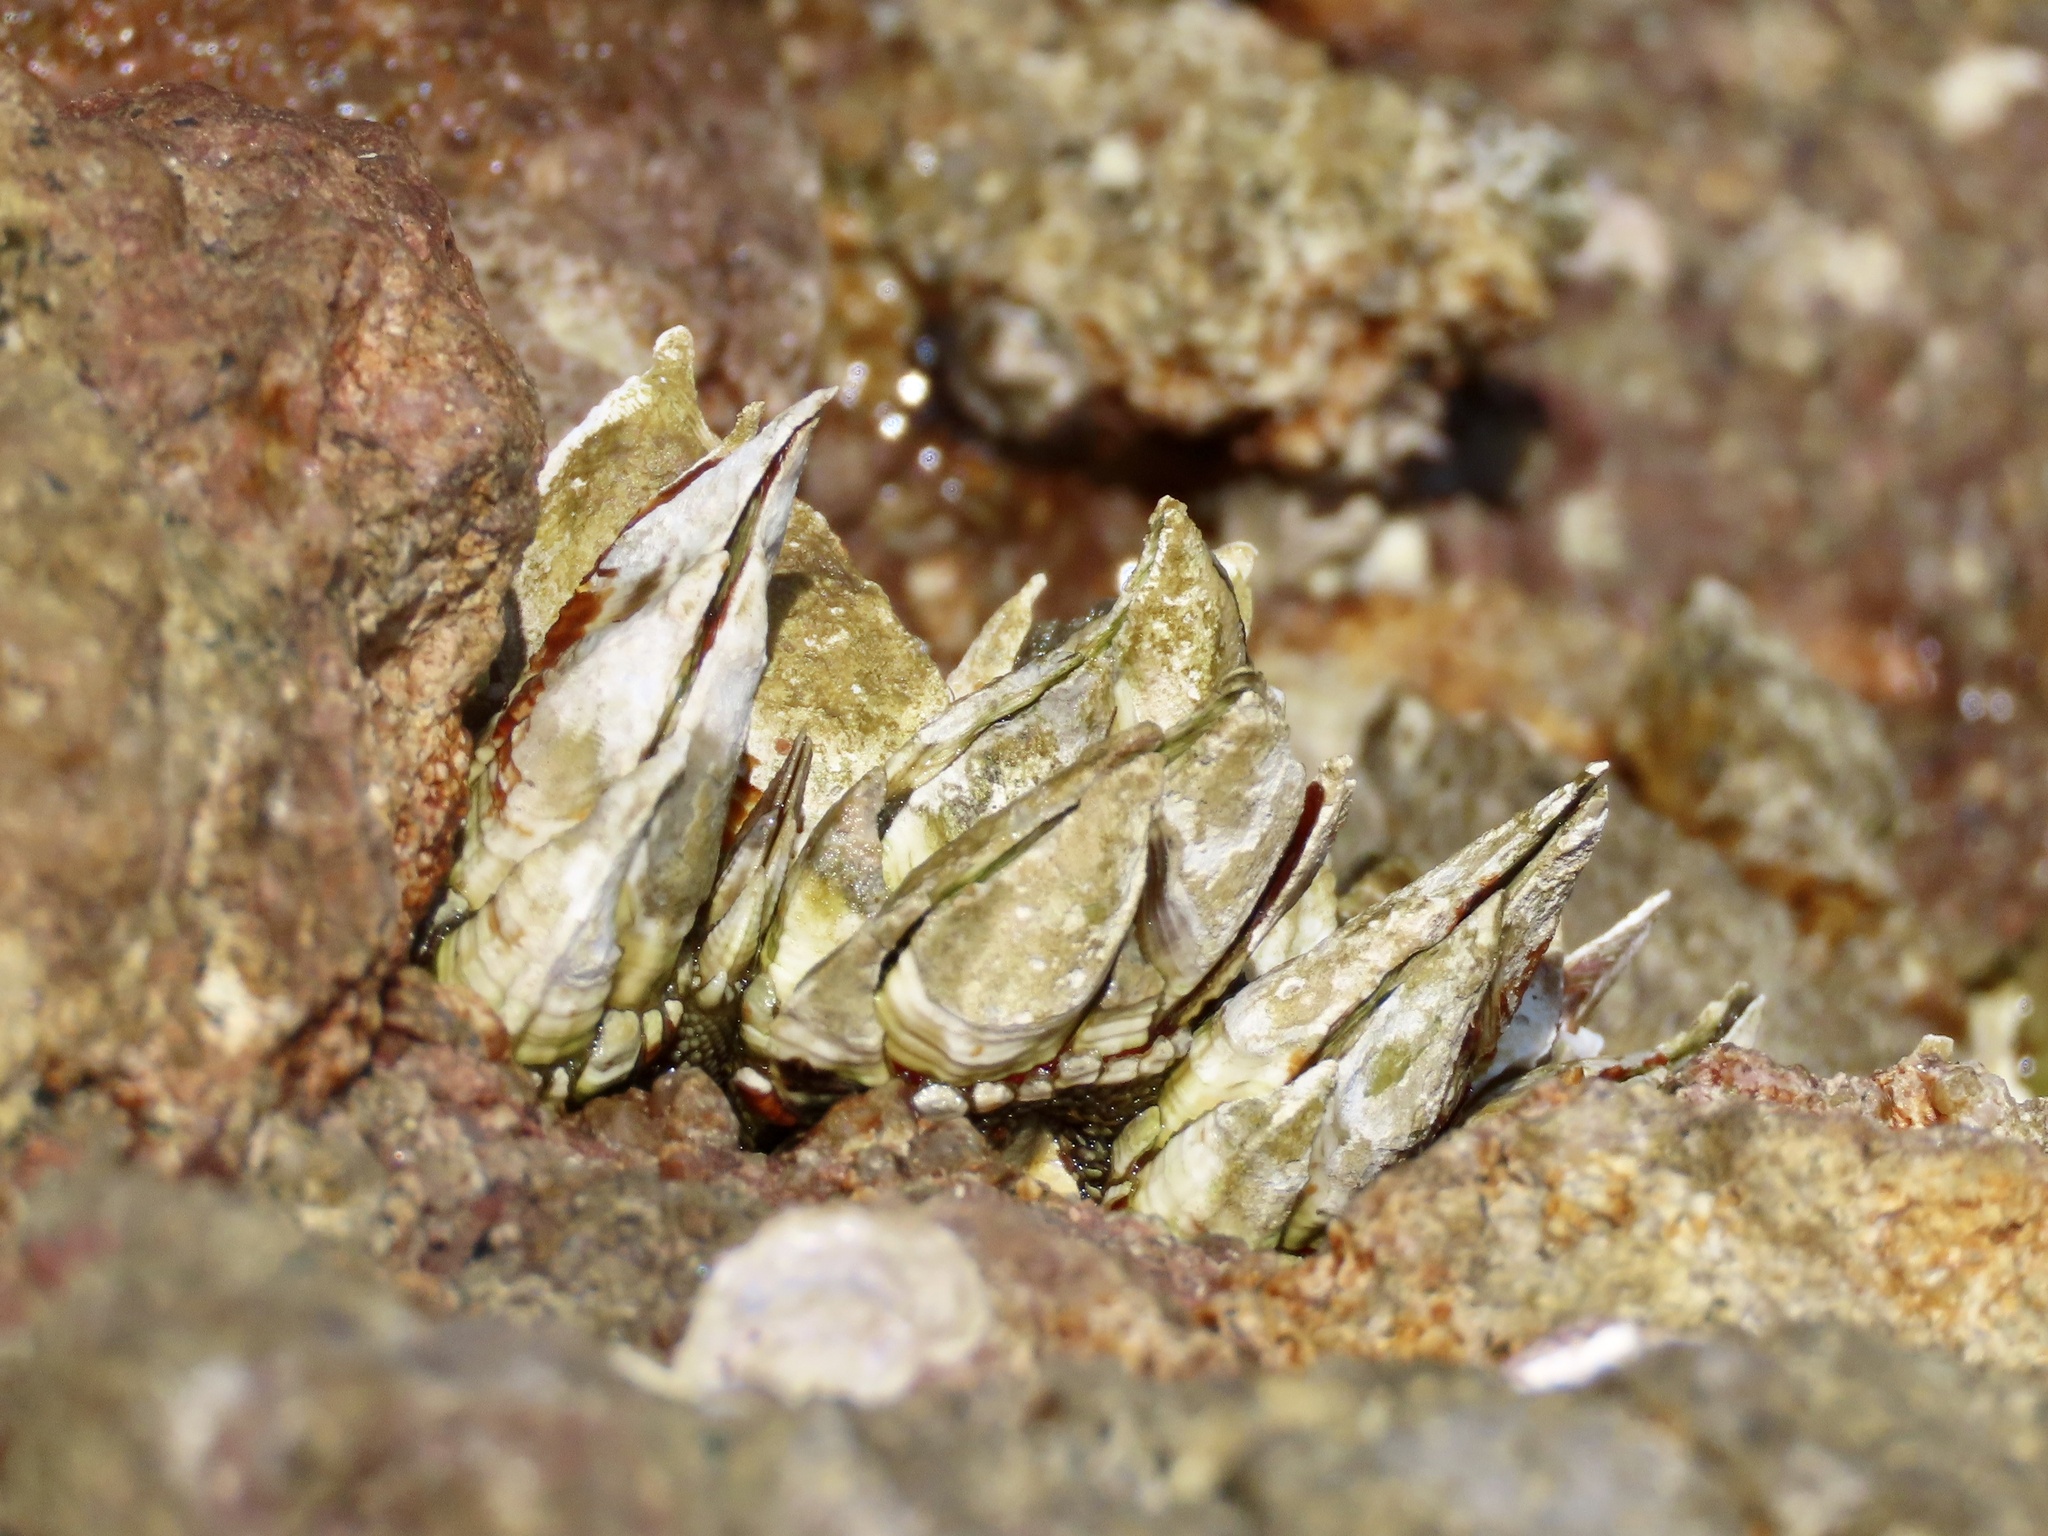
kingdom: Animalia
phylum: Arthropoda
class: Maxillopoda
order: Pedunculata
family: Pollicipedidae
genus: Capitulum
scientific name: Capitulum mitella
